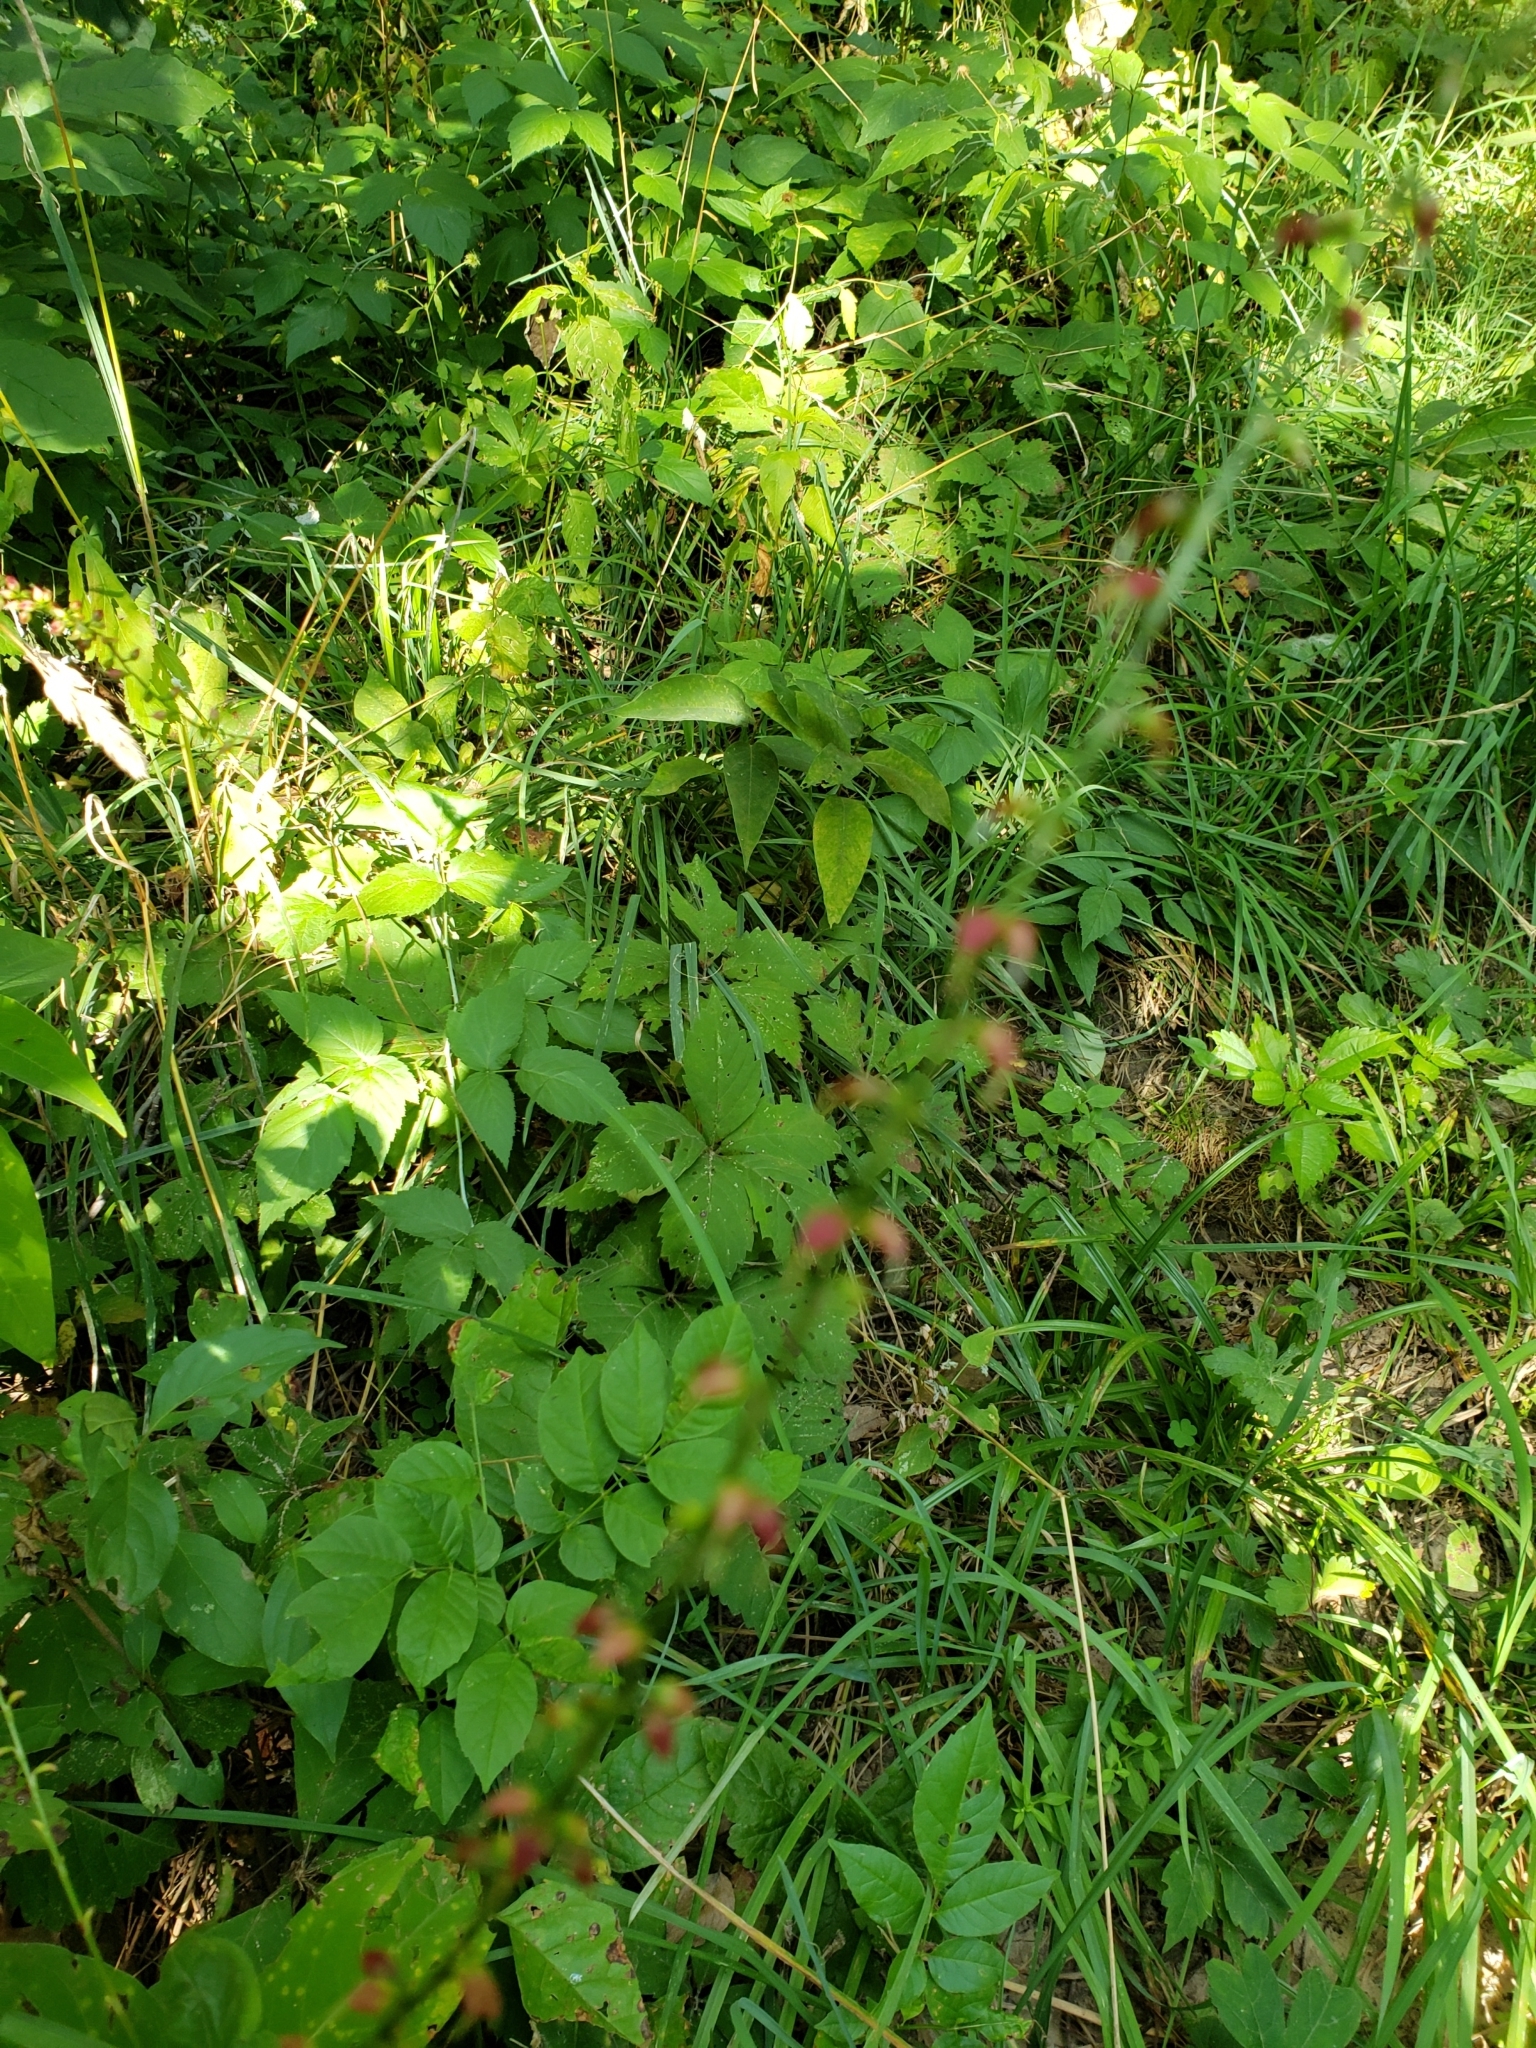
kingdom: Plantae
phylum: Tracheophyta
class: Magnoliopsida
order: Caryophyllales
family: Polygonaceae
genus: Persicaria
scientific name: Persicaria virginiana
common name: Jumpseed
